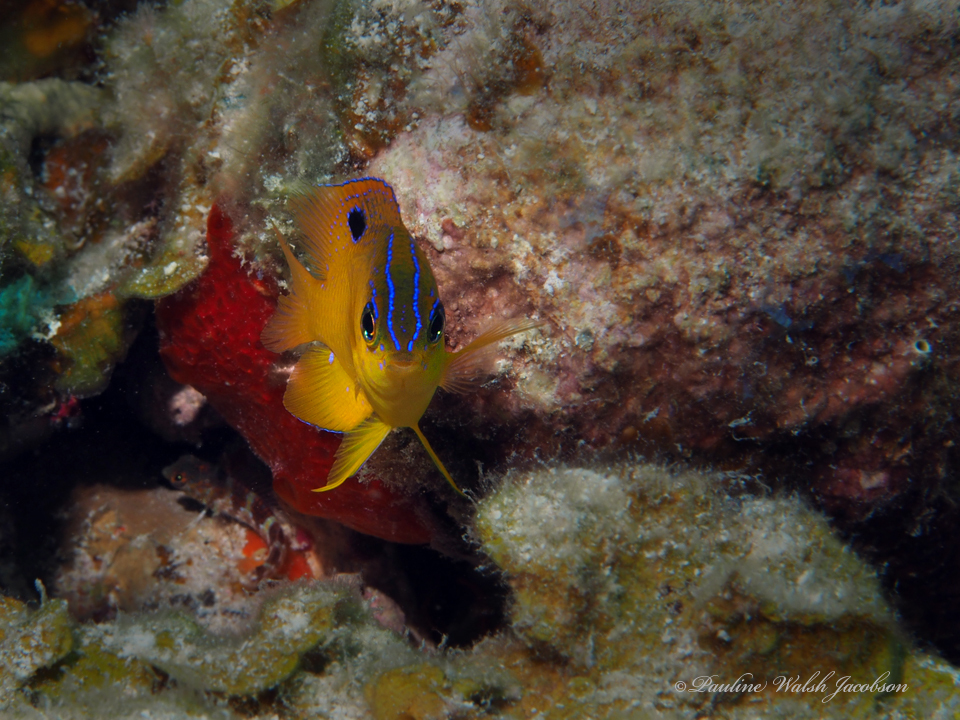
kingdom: Animalia
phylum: Chordata
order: Perciformes
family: Pomacentridae
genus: Stegastes
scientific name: Stegastes diencaeus
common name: Longfin damselfish
